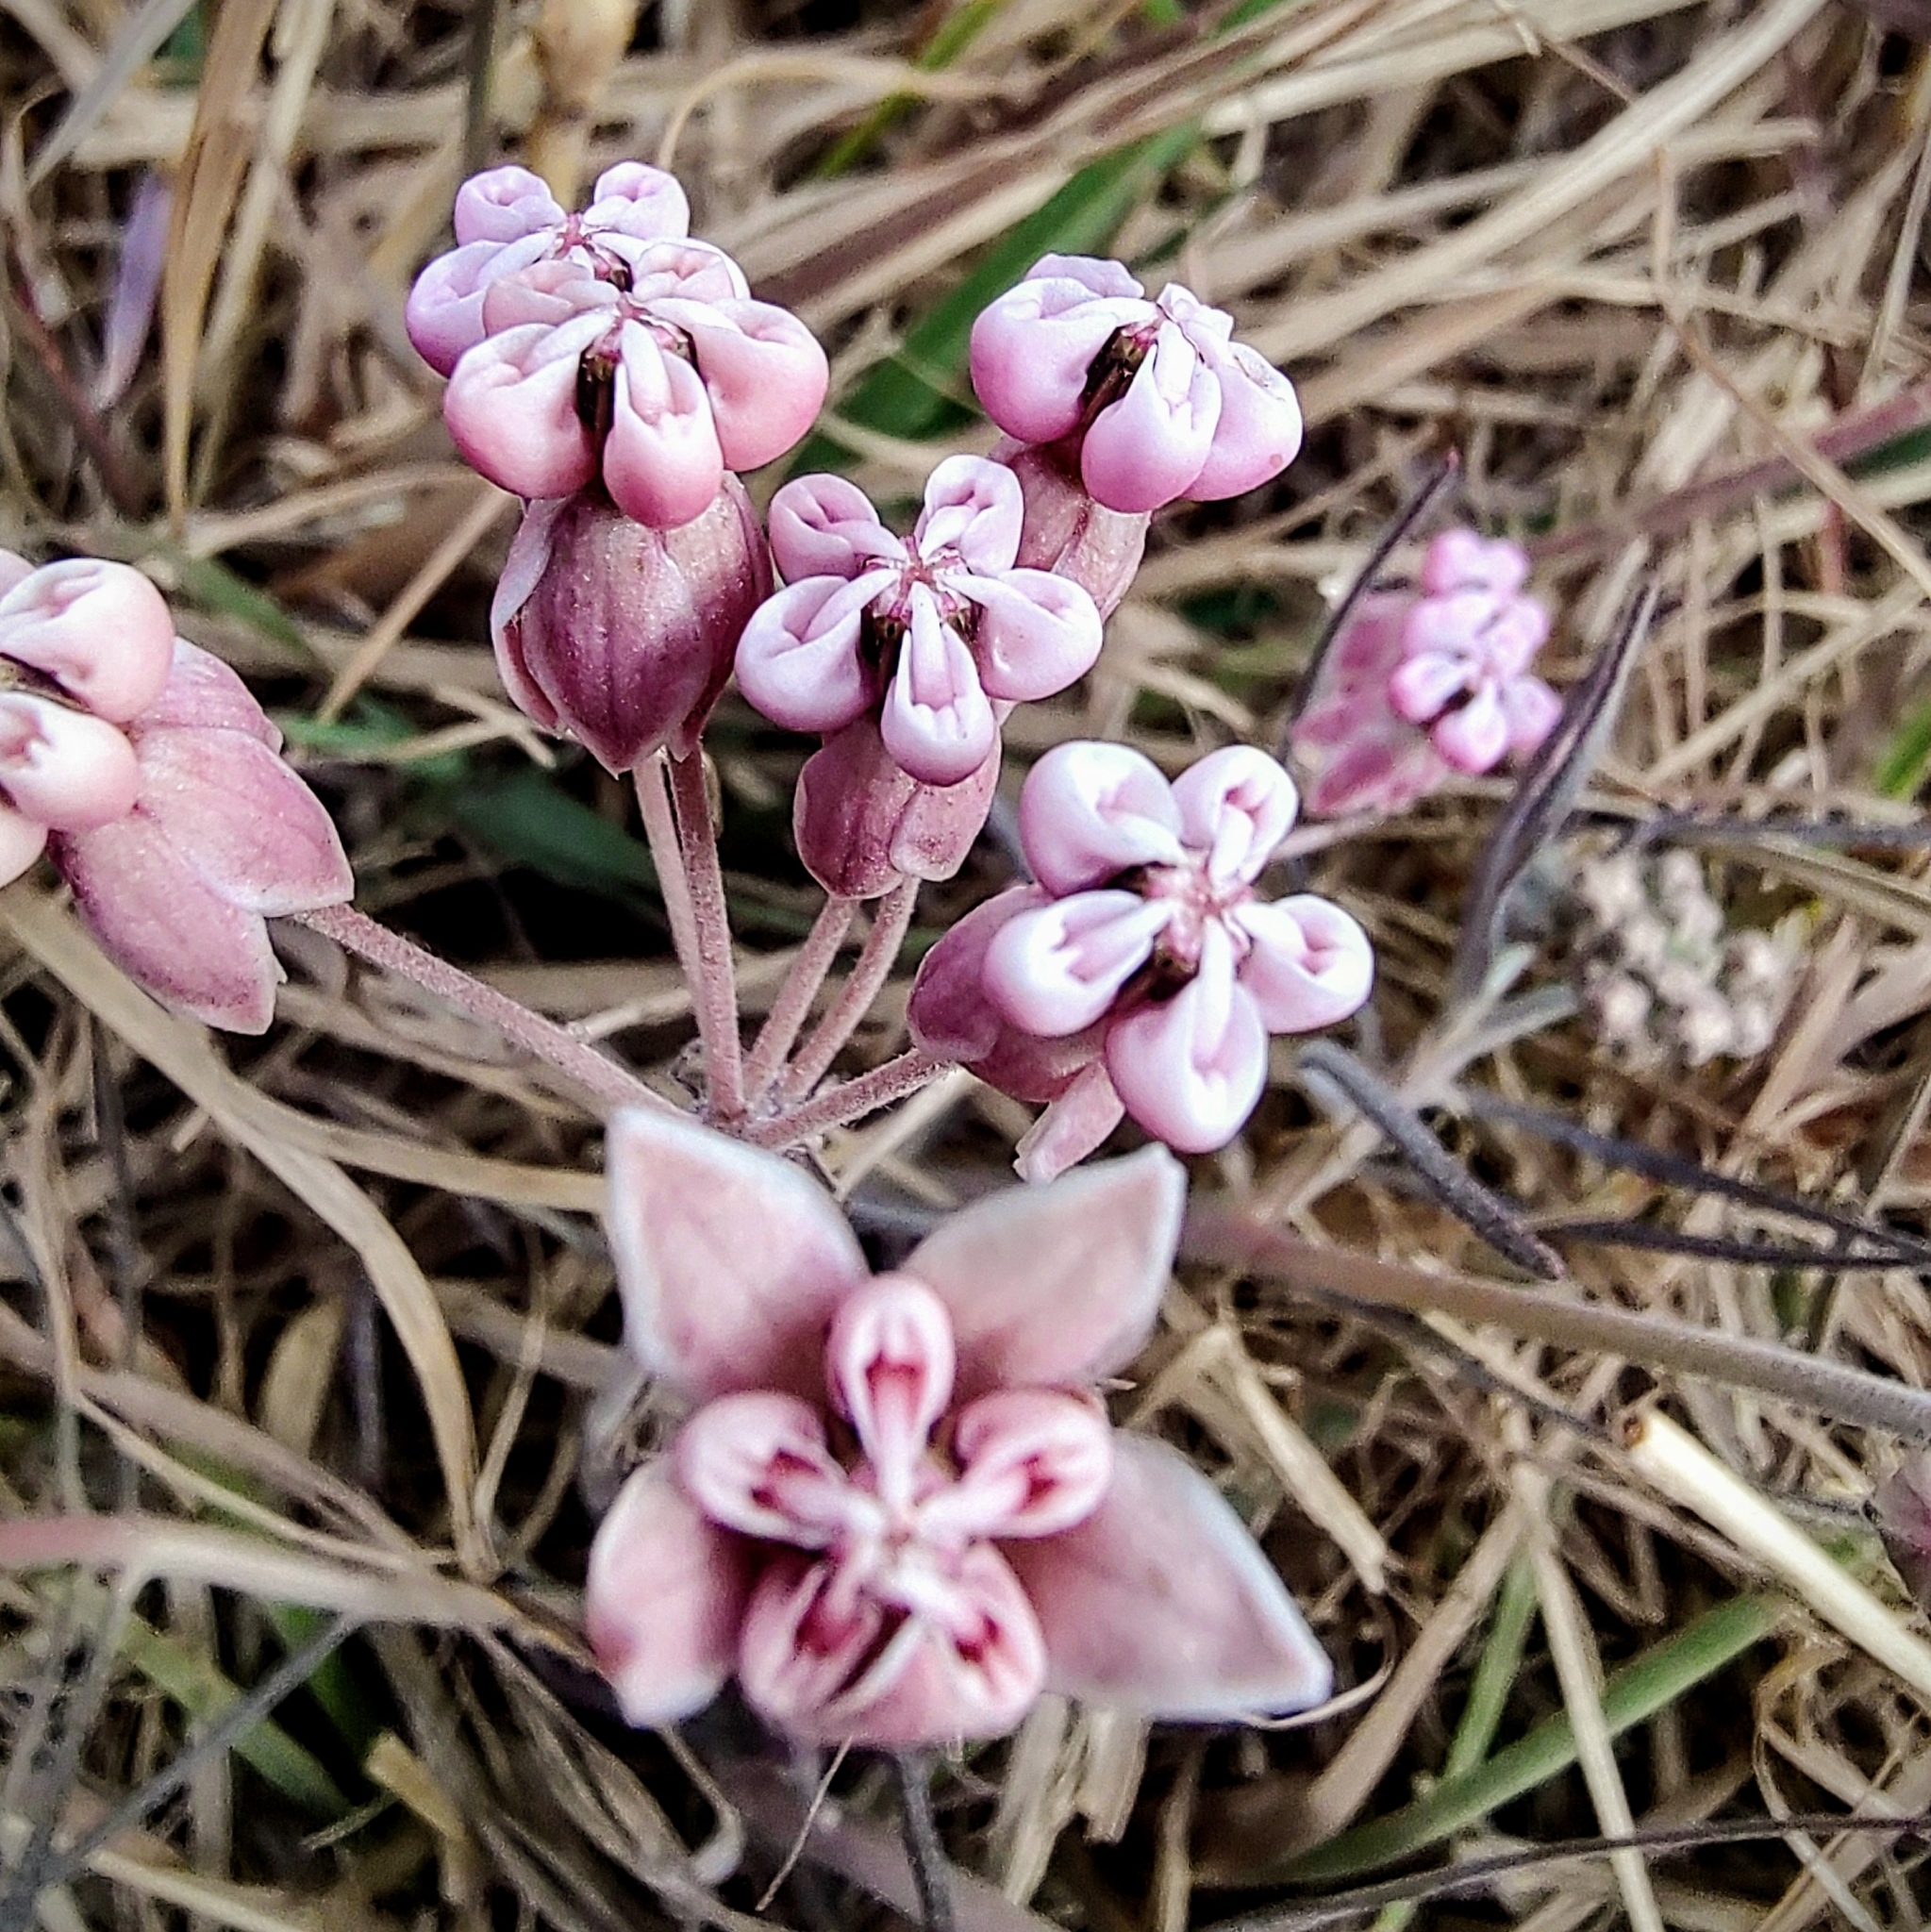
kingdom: Plantae
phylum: Tracheophyta
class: Magnoliopsida
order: Gentianales
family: Apocynaceae
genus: Asclepias
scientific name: Asclepias senecionifolia
